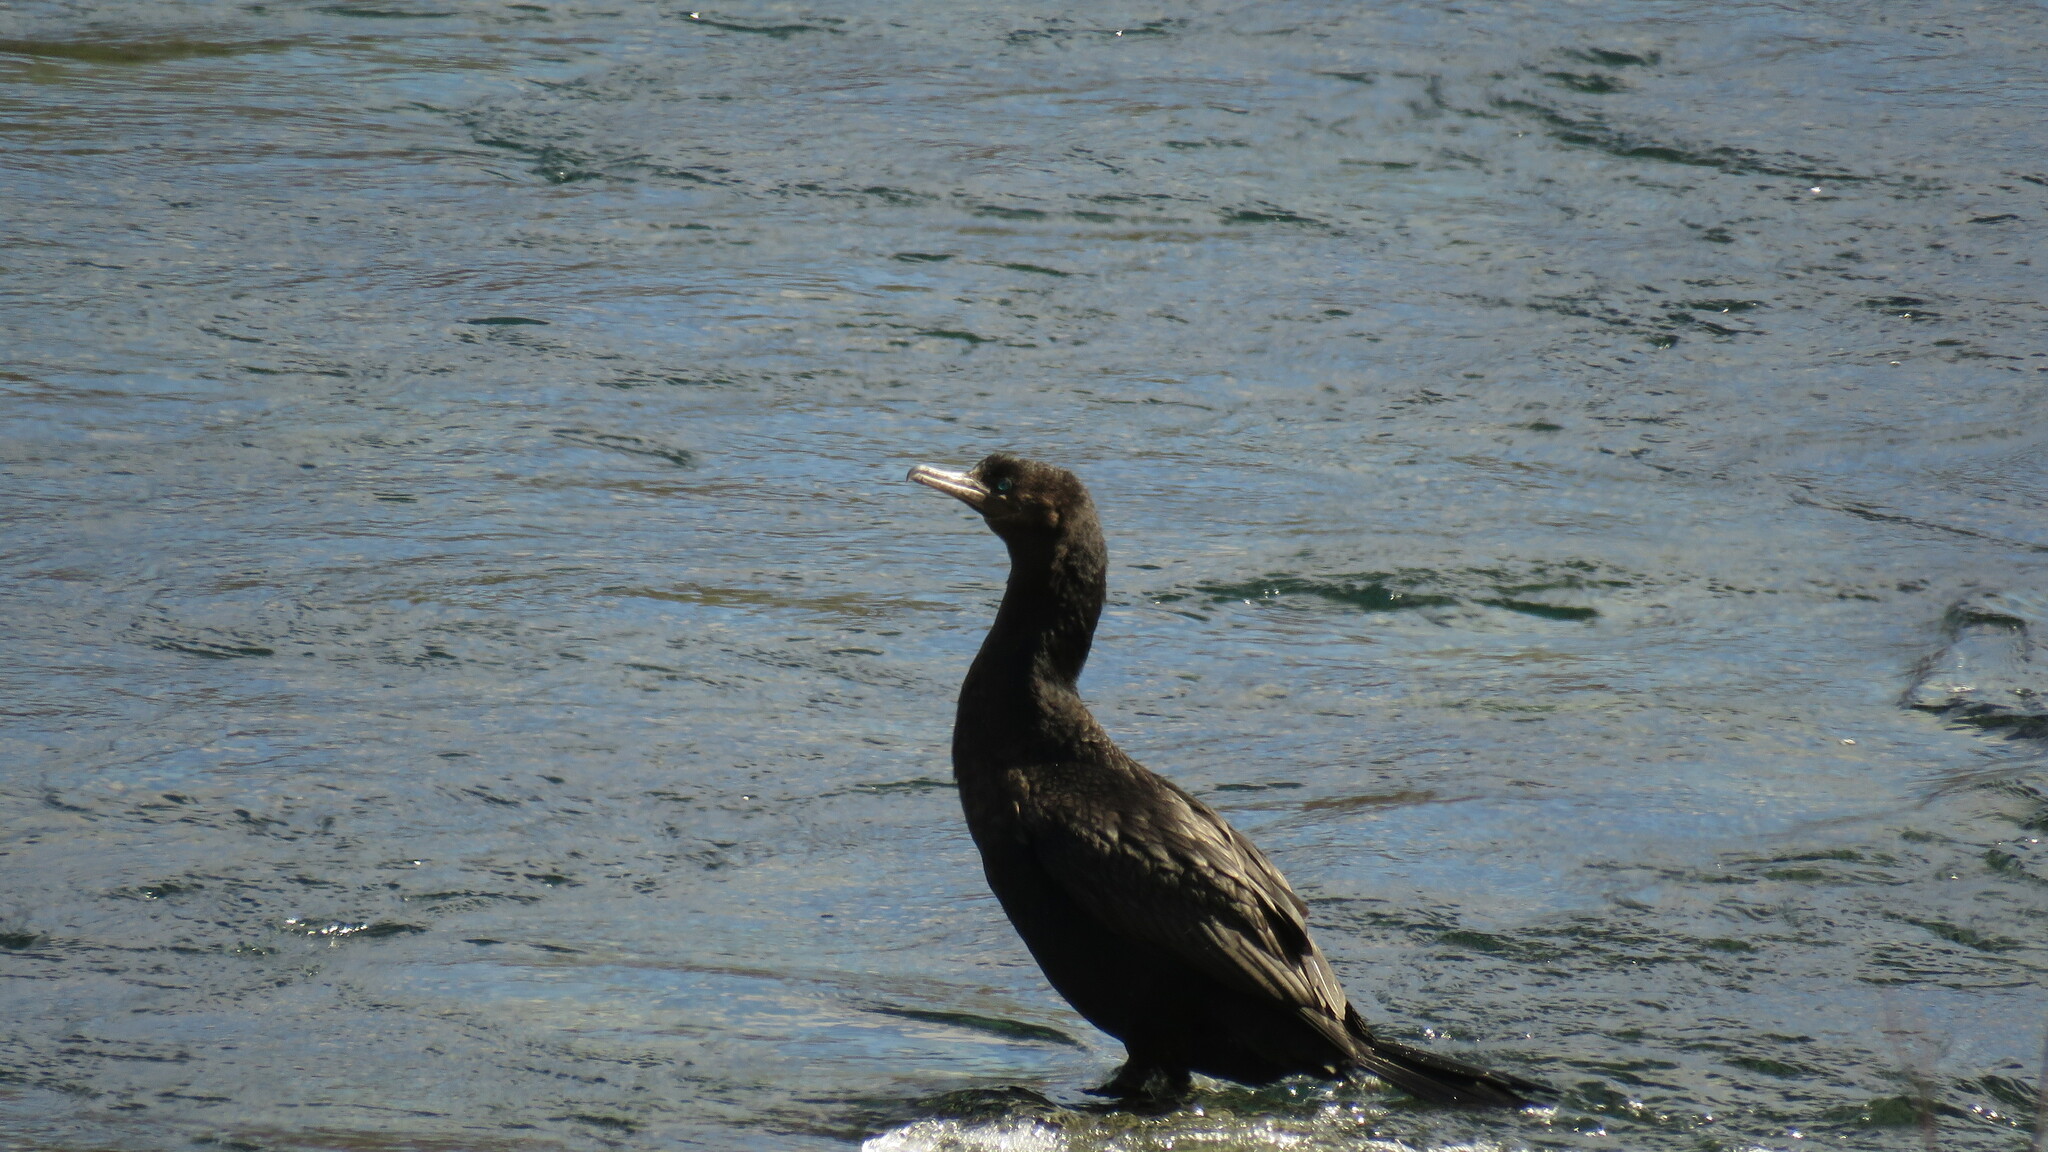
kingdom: Animalia
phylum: Chordata
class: Aves
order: Suliformes
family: Phalacrocoracidae
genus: Phalacrocorax
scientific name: Phalacrocorax brasilianus
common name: Neotropic cormorant
